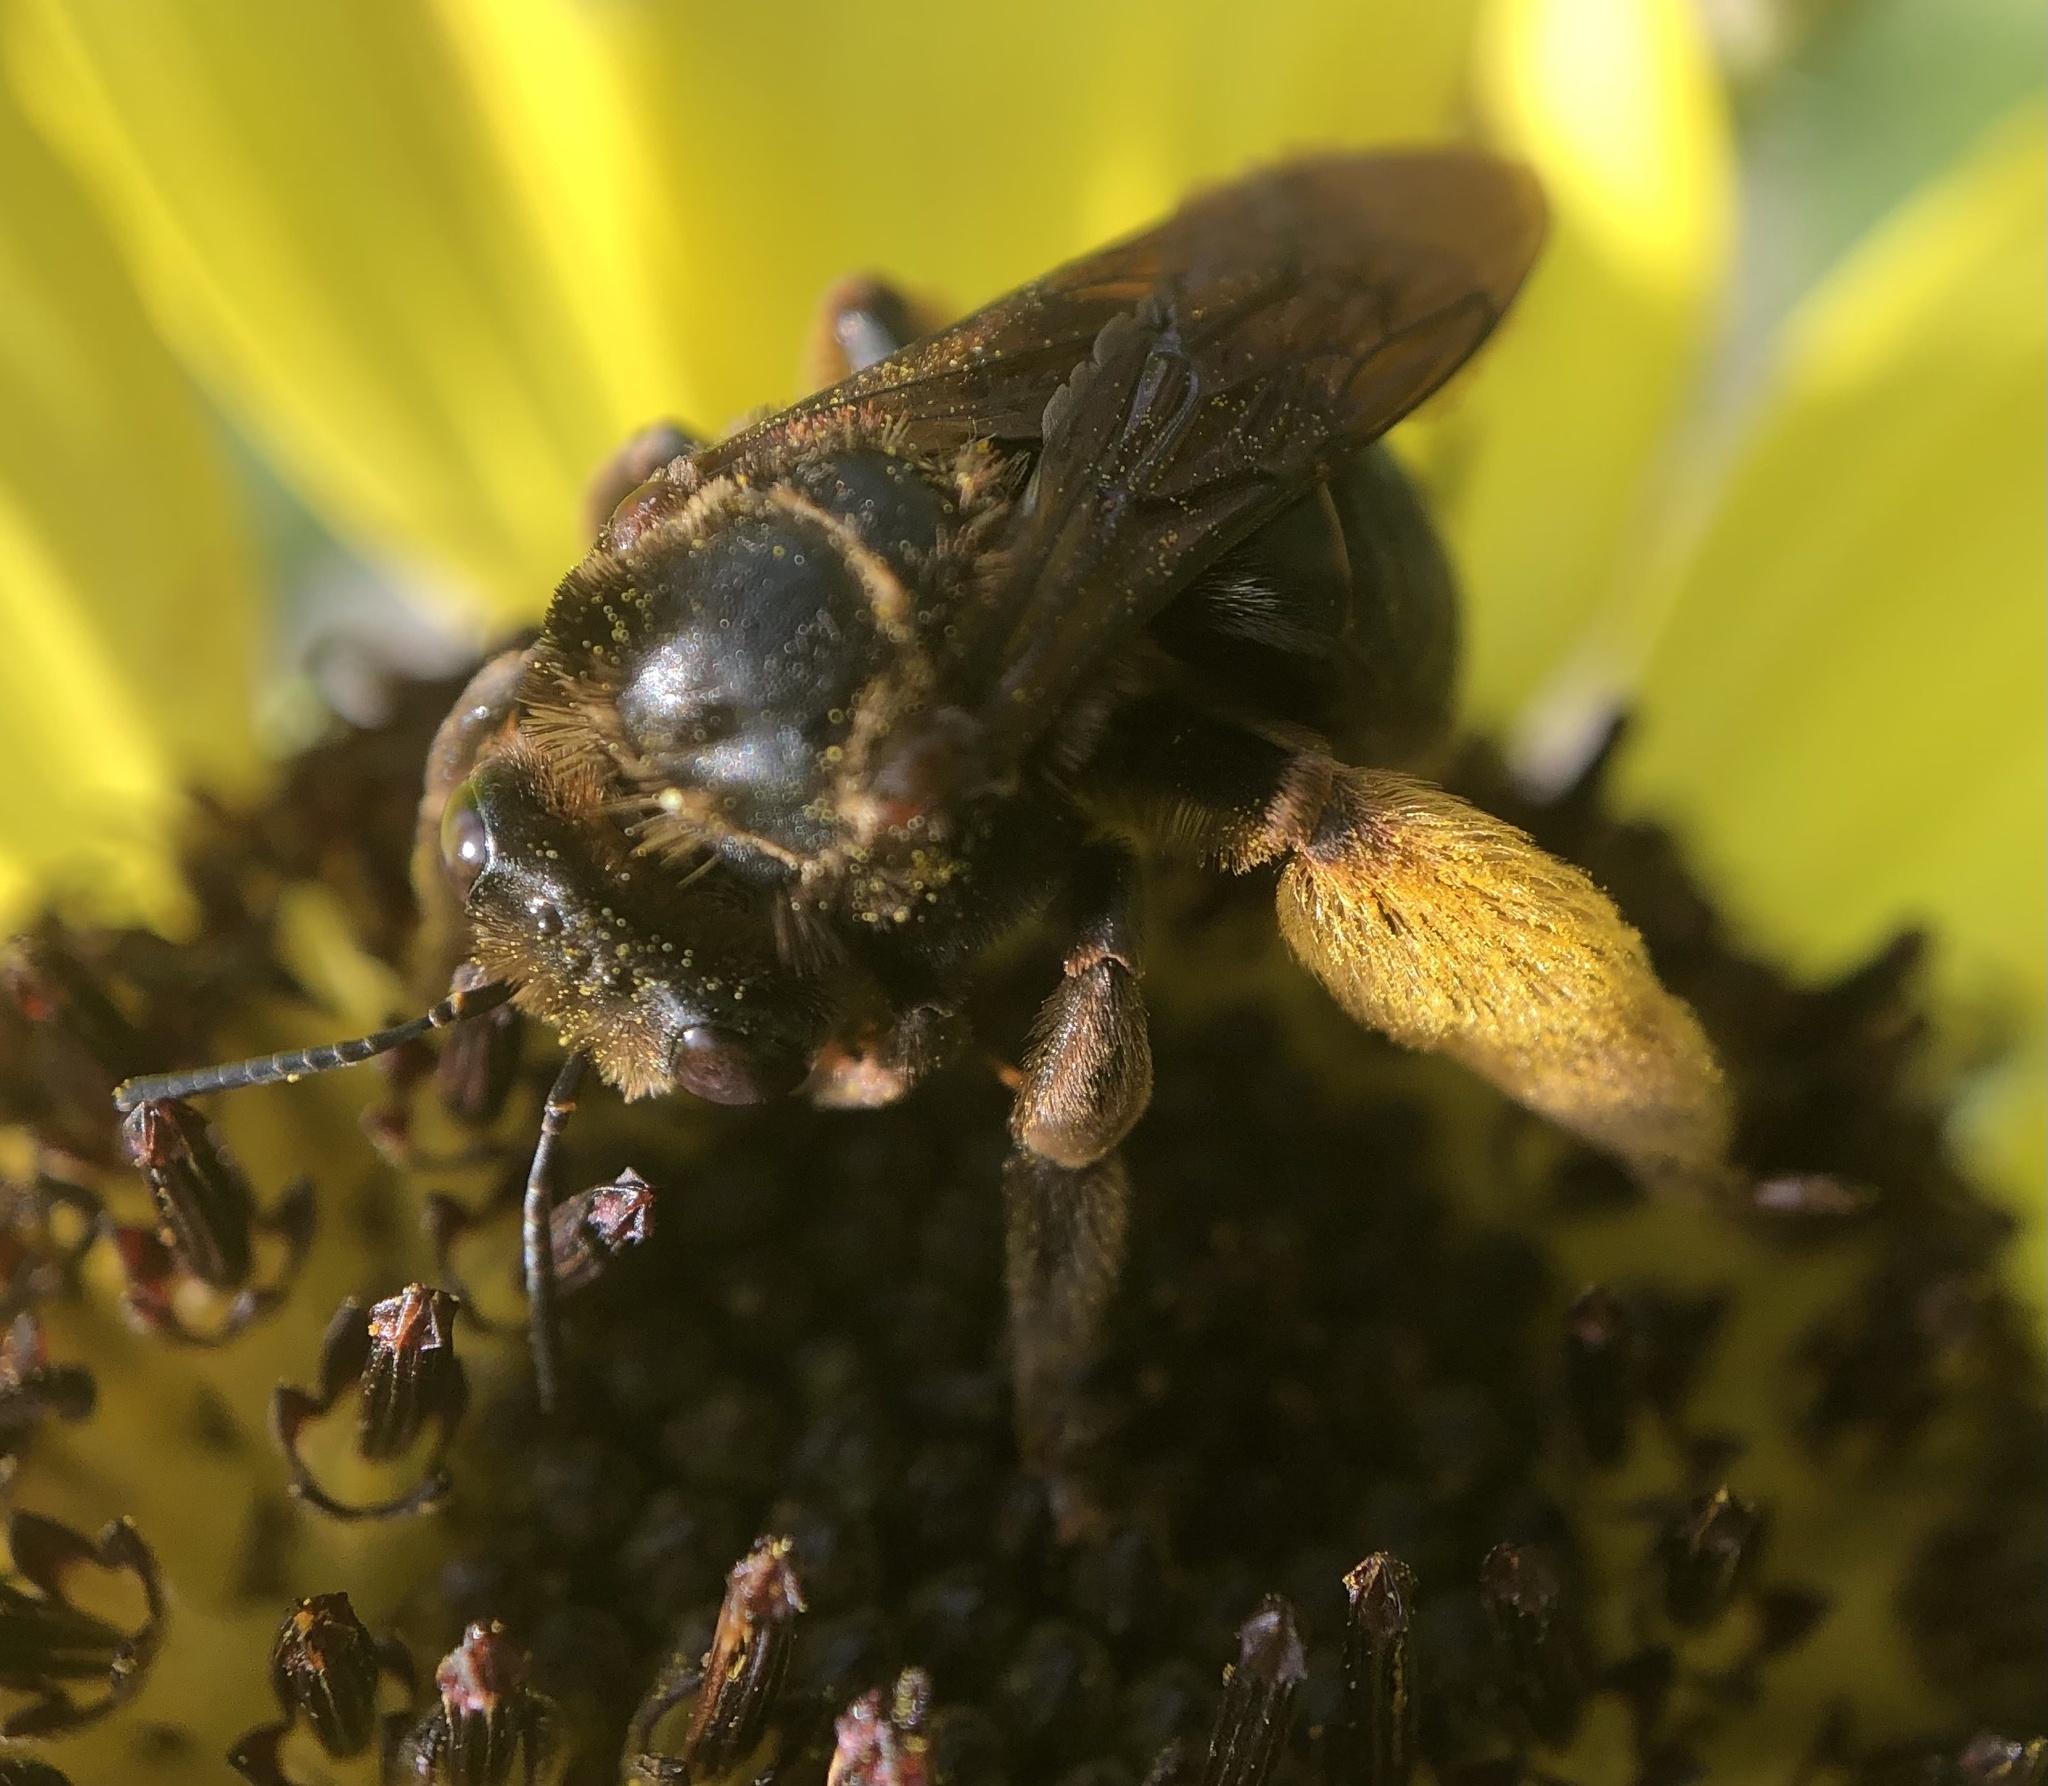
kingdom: Animalia
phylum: Arthropoda
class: Insecta
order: Hymenoptera
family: Apidae
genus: Svastra
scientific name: Svastra obliqua
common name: Oblique longhorn
